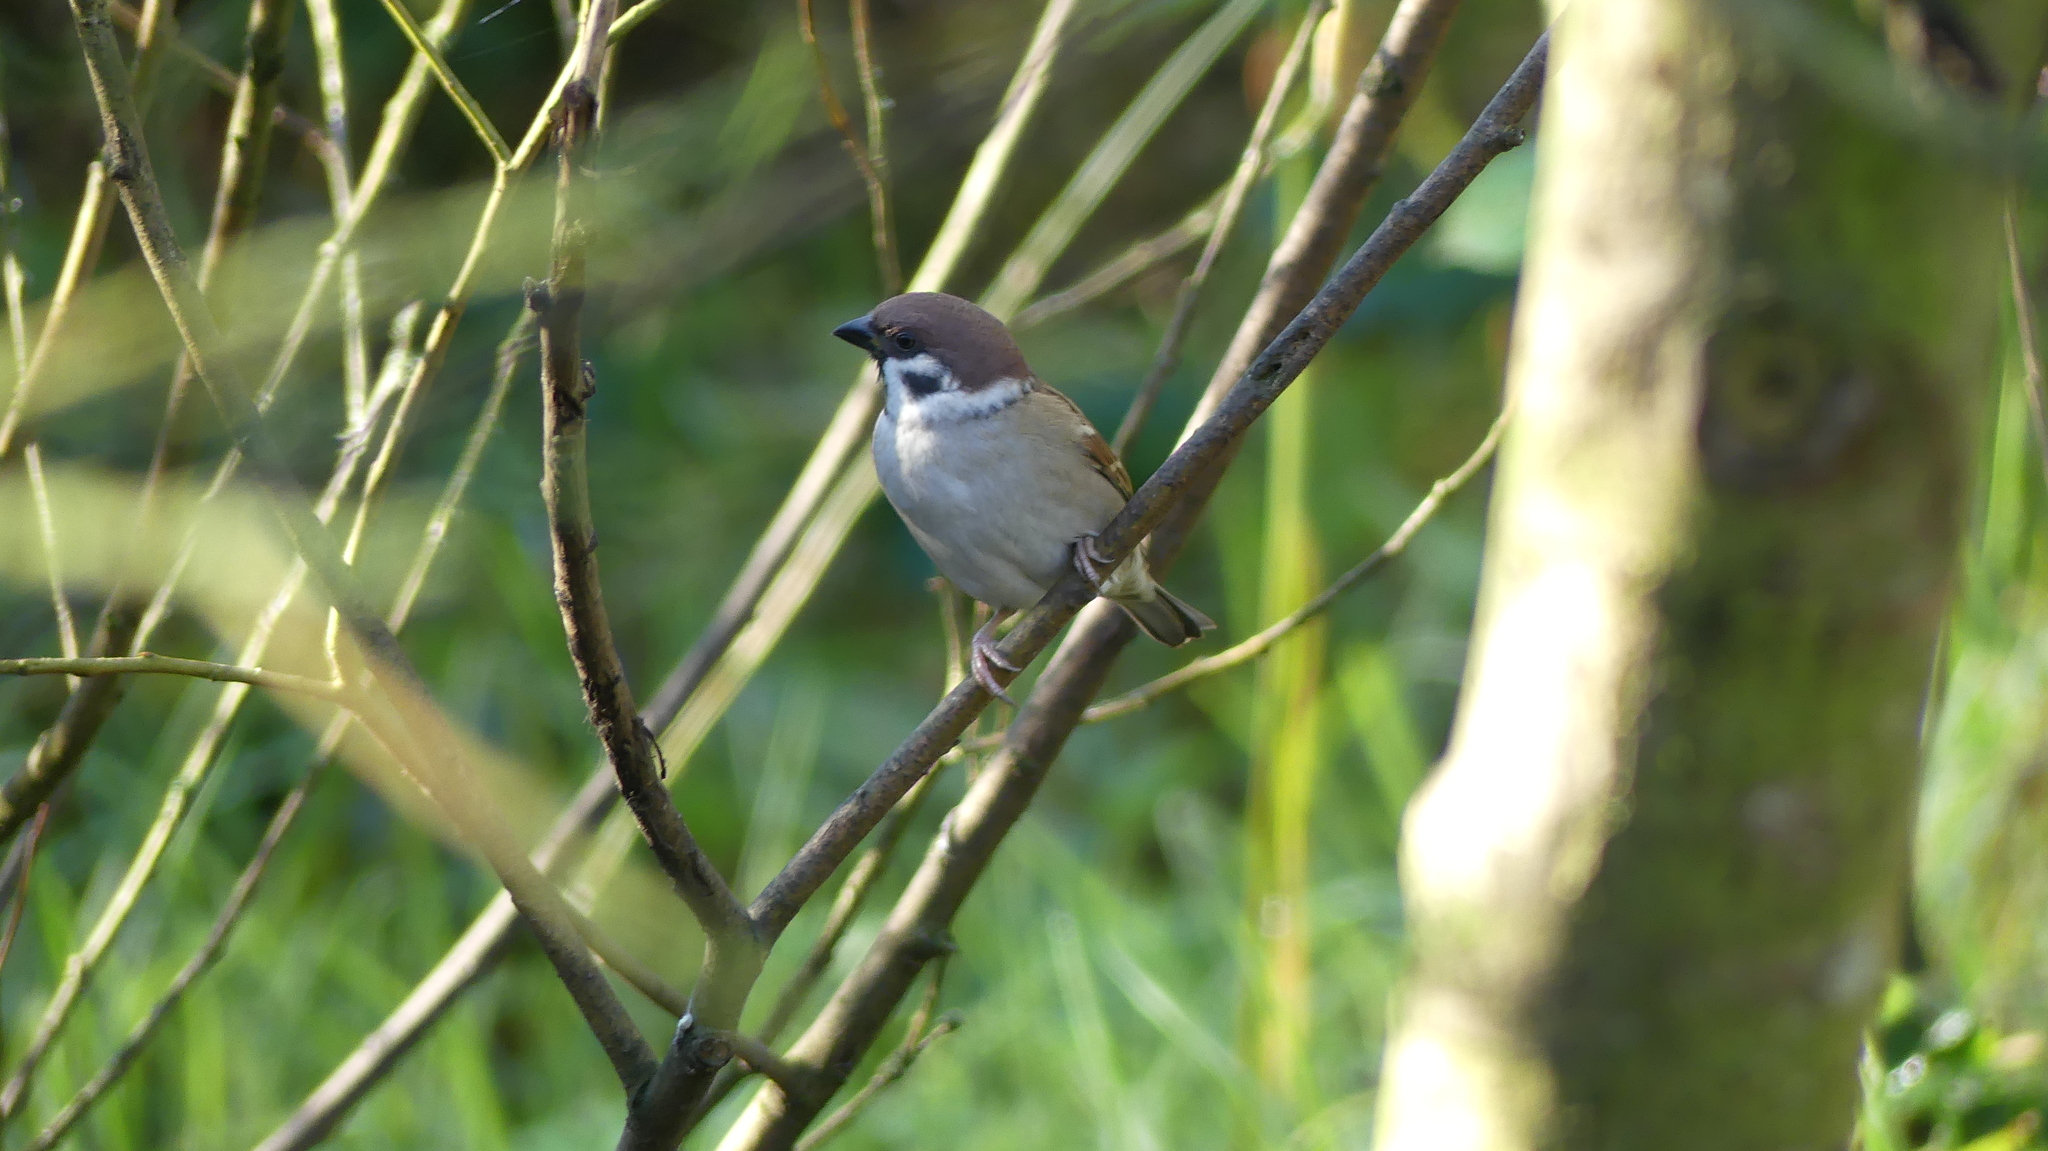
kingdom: Animalia
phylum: Chordata
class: Aves
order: Passeriformes
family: Passeridae
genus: Passer
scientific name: Passer montanus
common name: Eurasian tree sparrow
